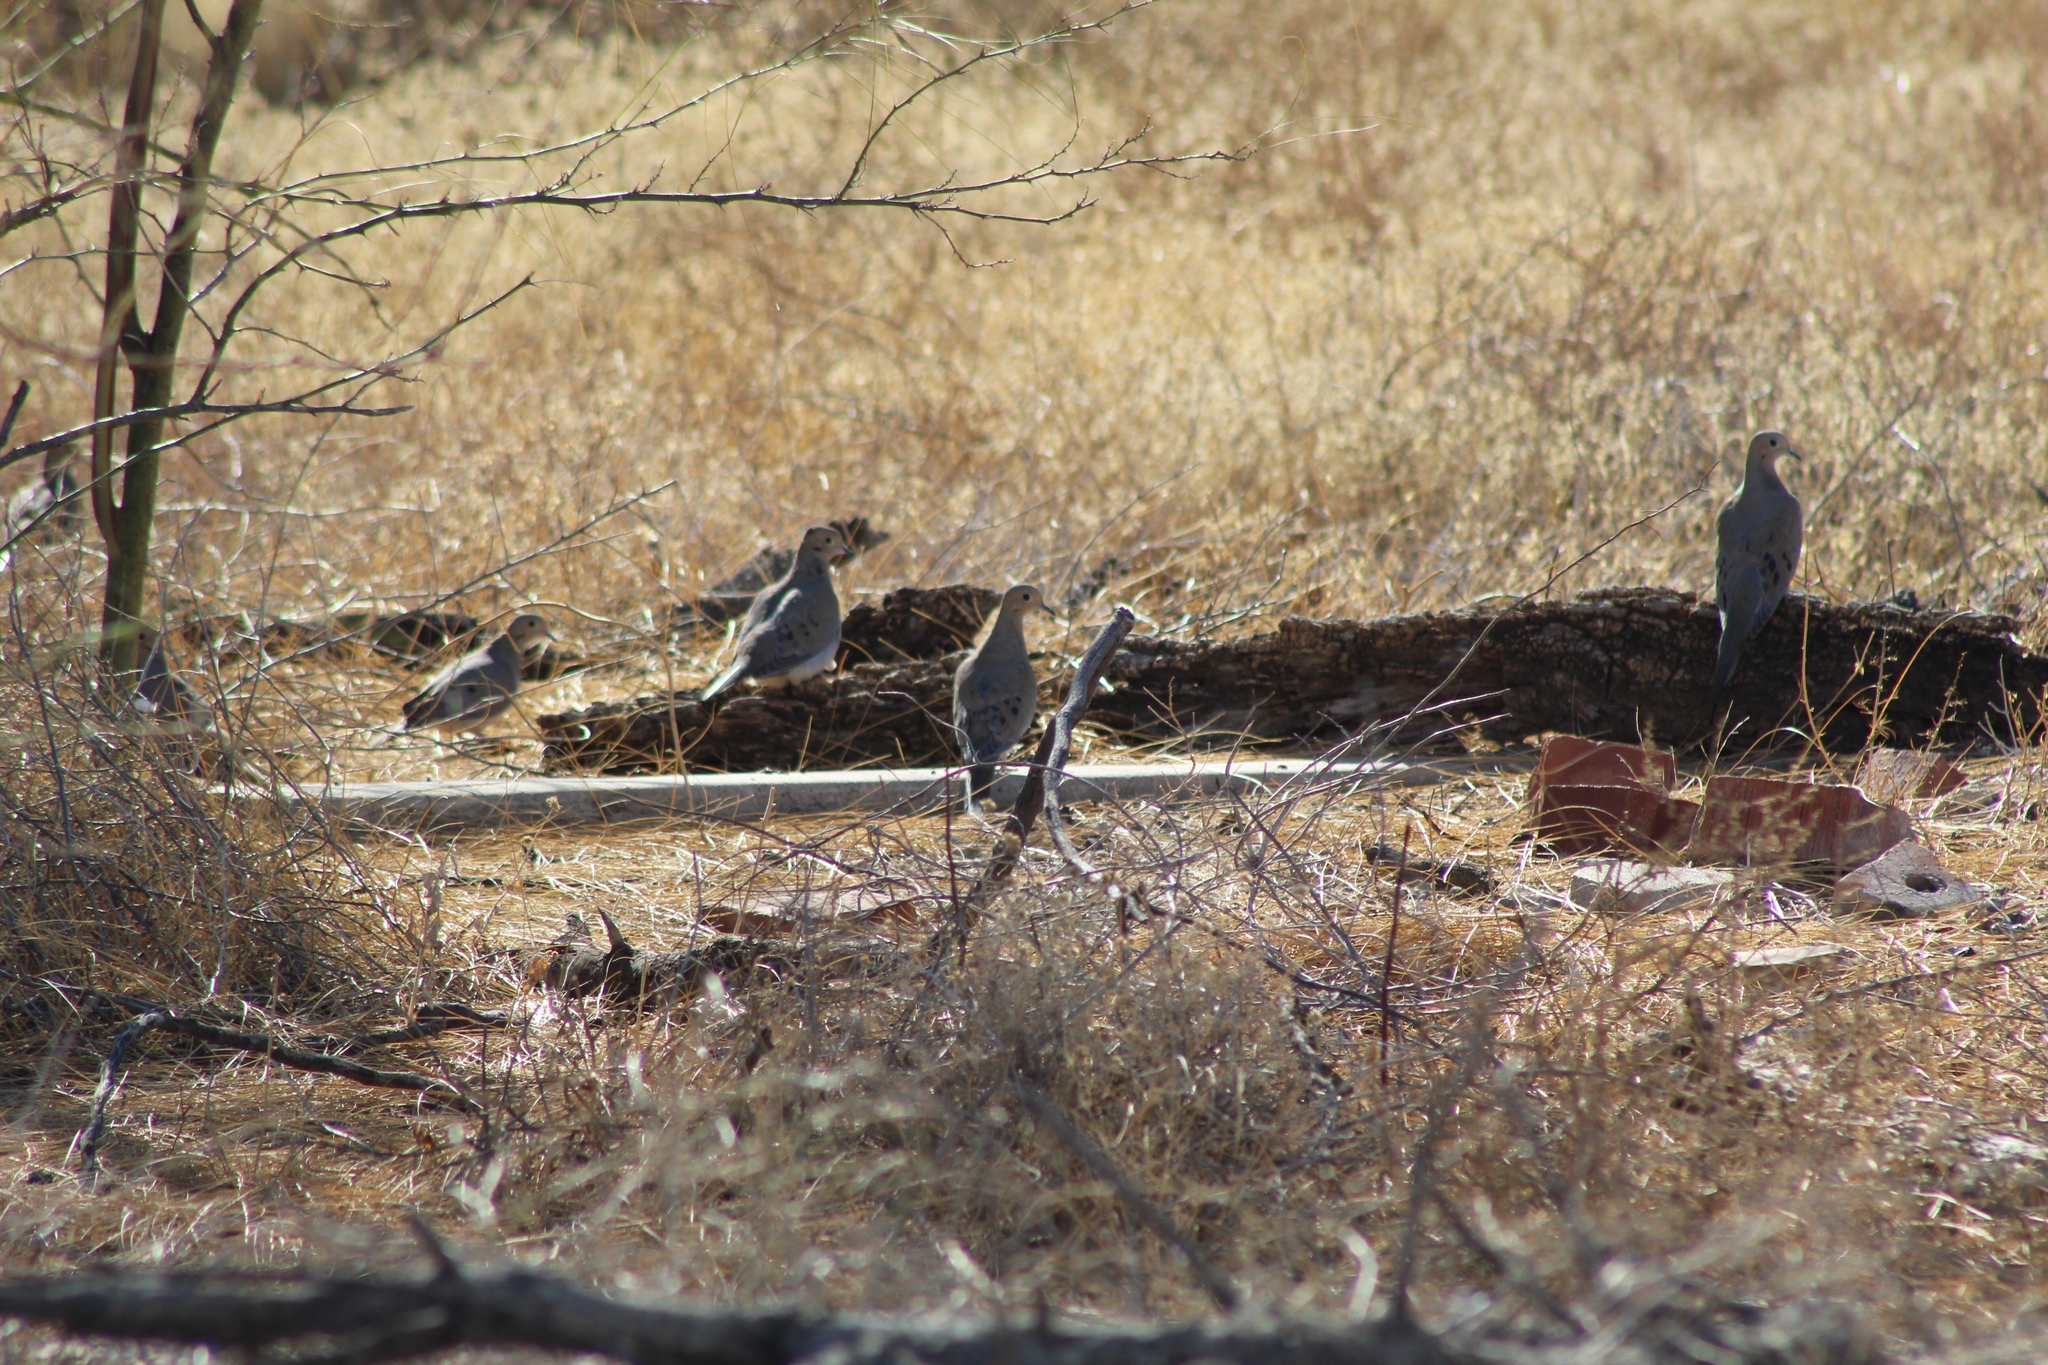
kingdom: Animalia
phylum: Chordata
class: Aves
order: Columbiformes
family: Columbidae
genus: Zenaida
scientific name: Zenaida macroura
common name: Mourning dove
